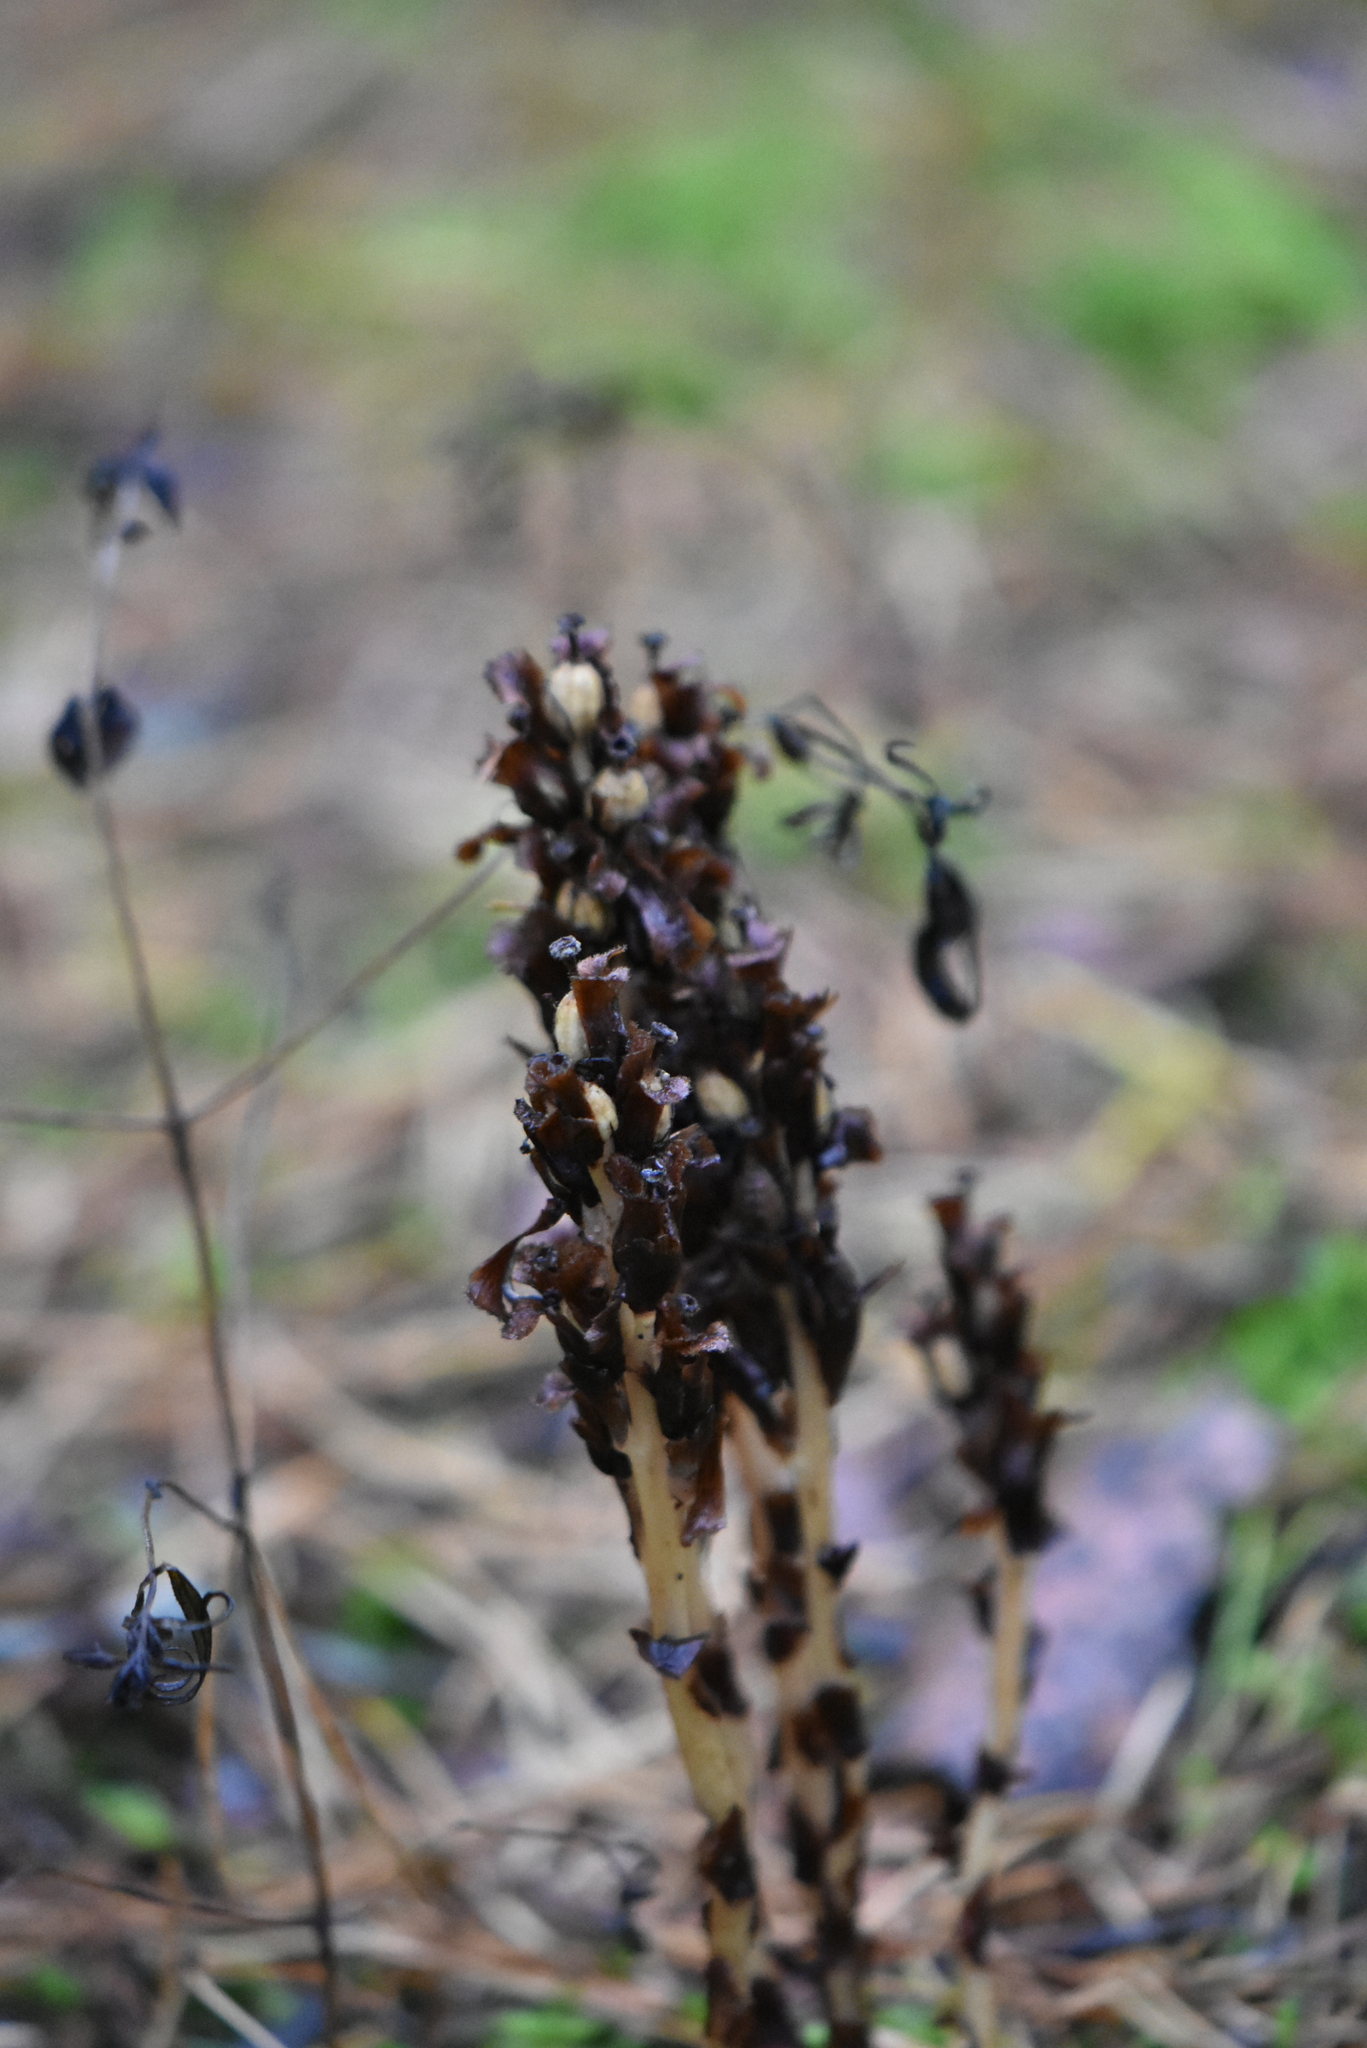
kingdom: Plantae
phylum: Tracheophyta
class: Magnoliopsida
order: Ericales
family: Ericaceae
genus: Hypopitys
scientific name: Hypopitys monotropa
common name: Yellow bird's-nest
